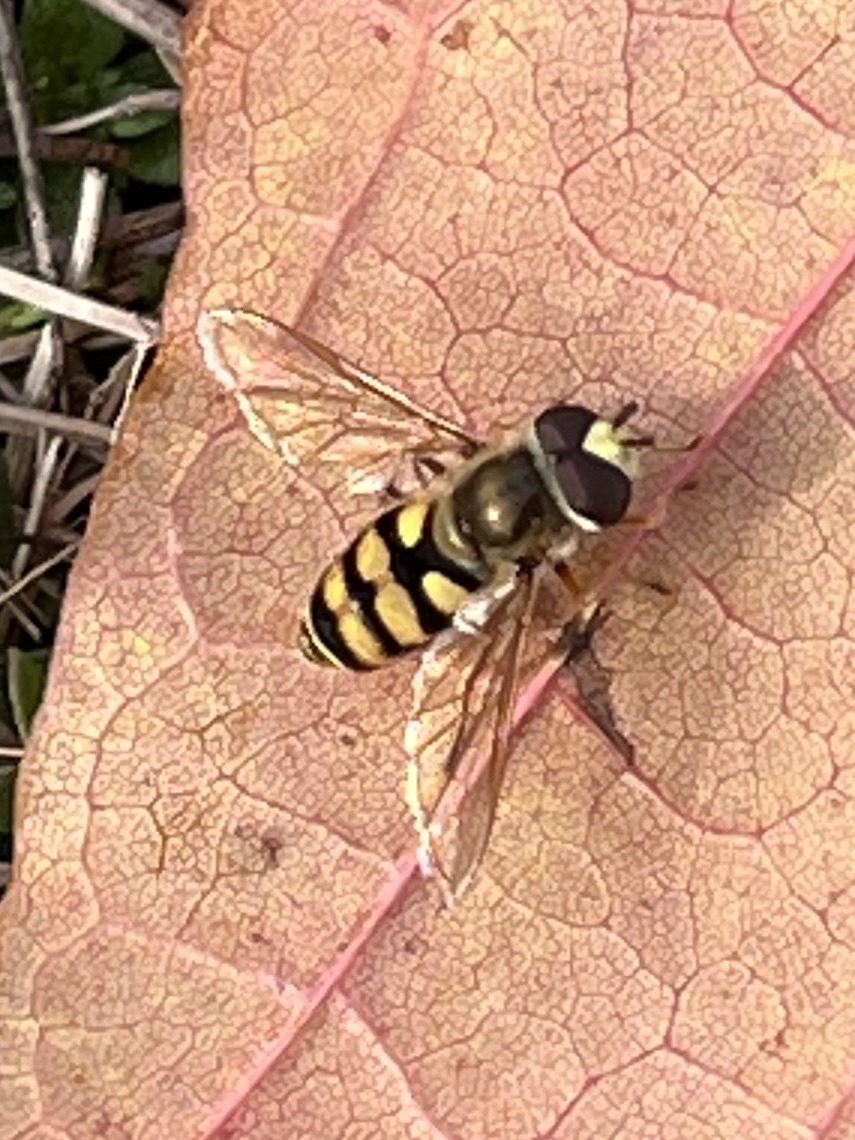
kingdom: Animalia
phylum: Arthropoda
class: Insecta
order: Diptera
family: Syrphidae
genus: Eupeodes
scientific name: Eupeodes corollae
